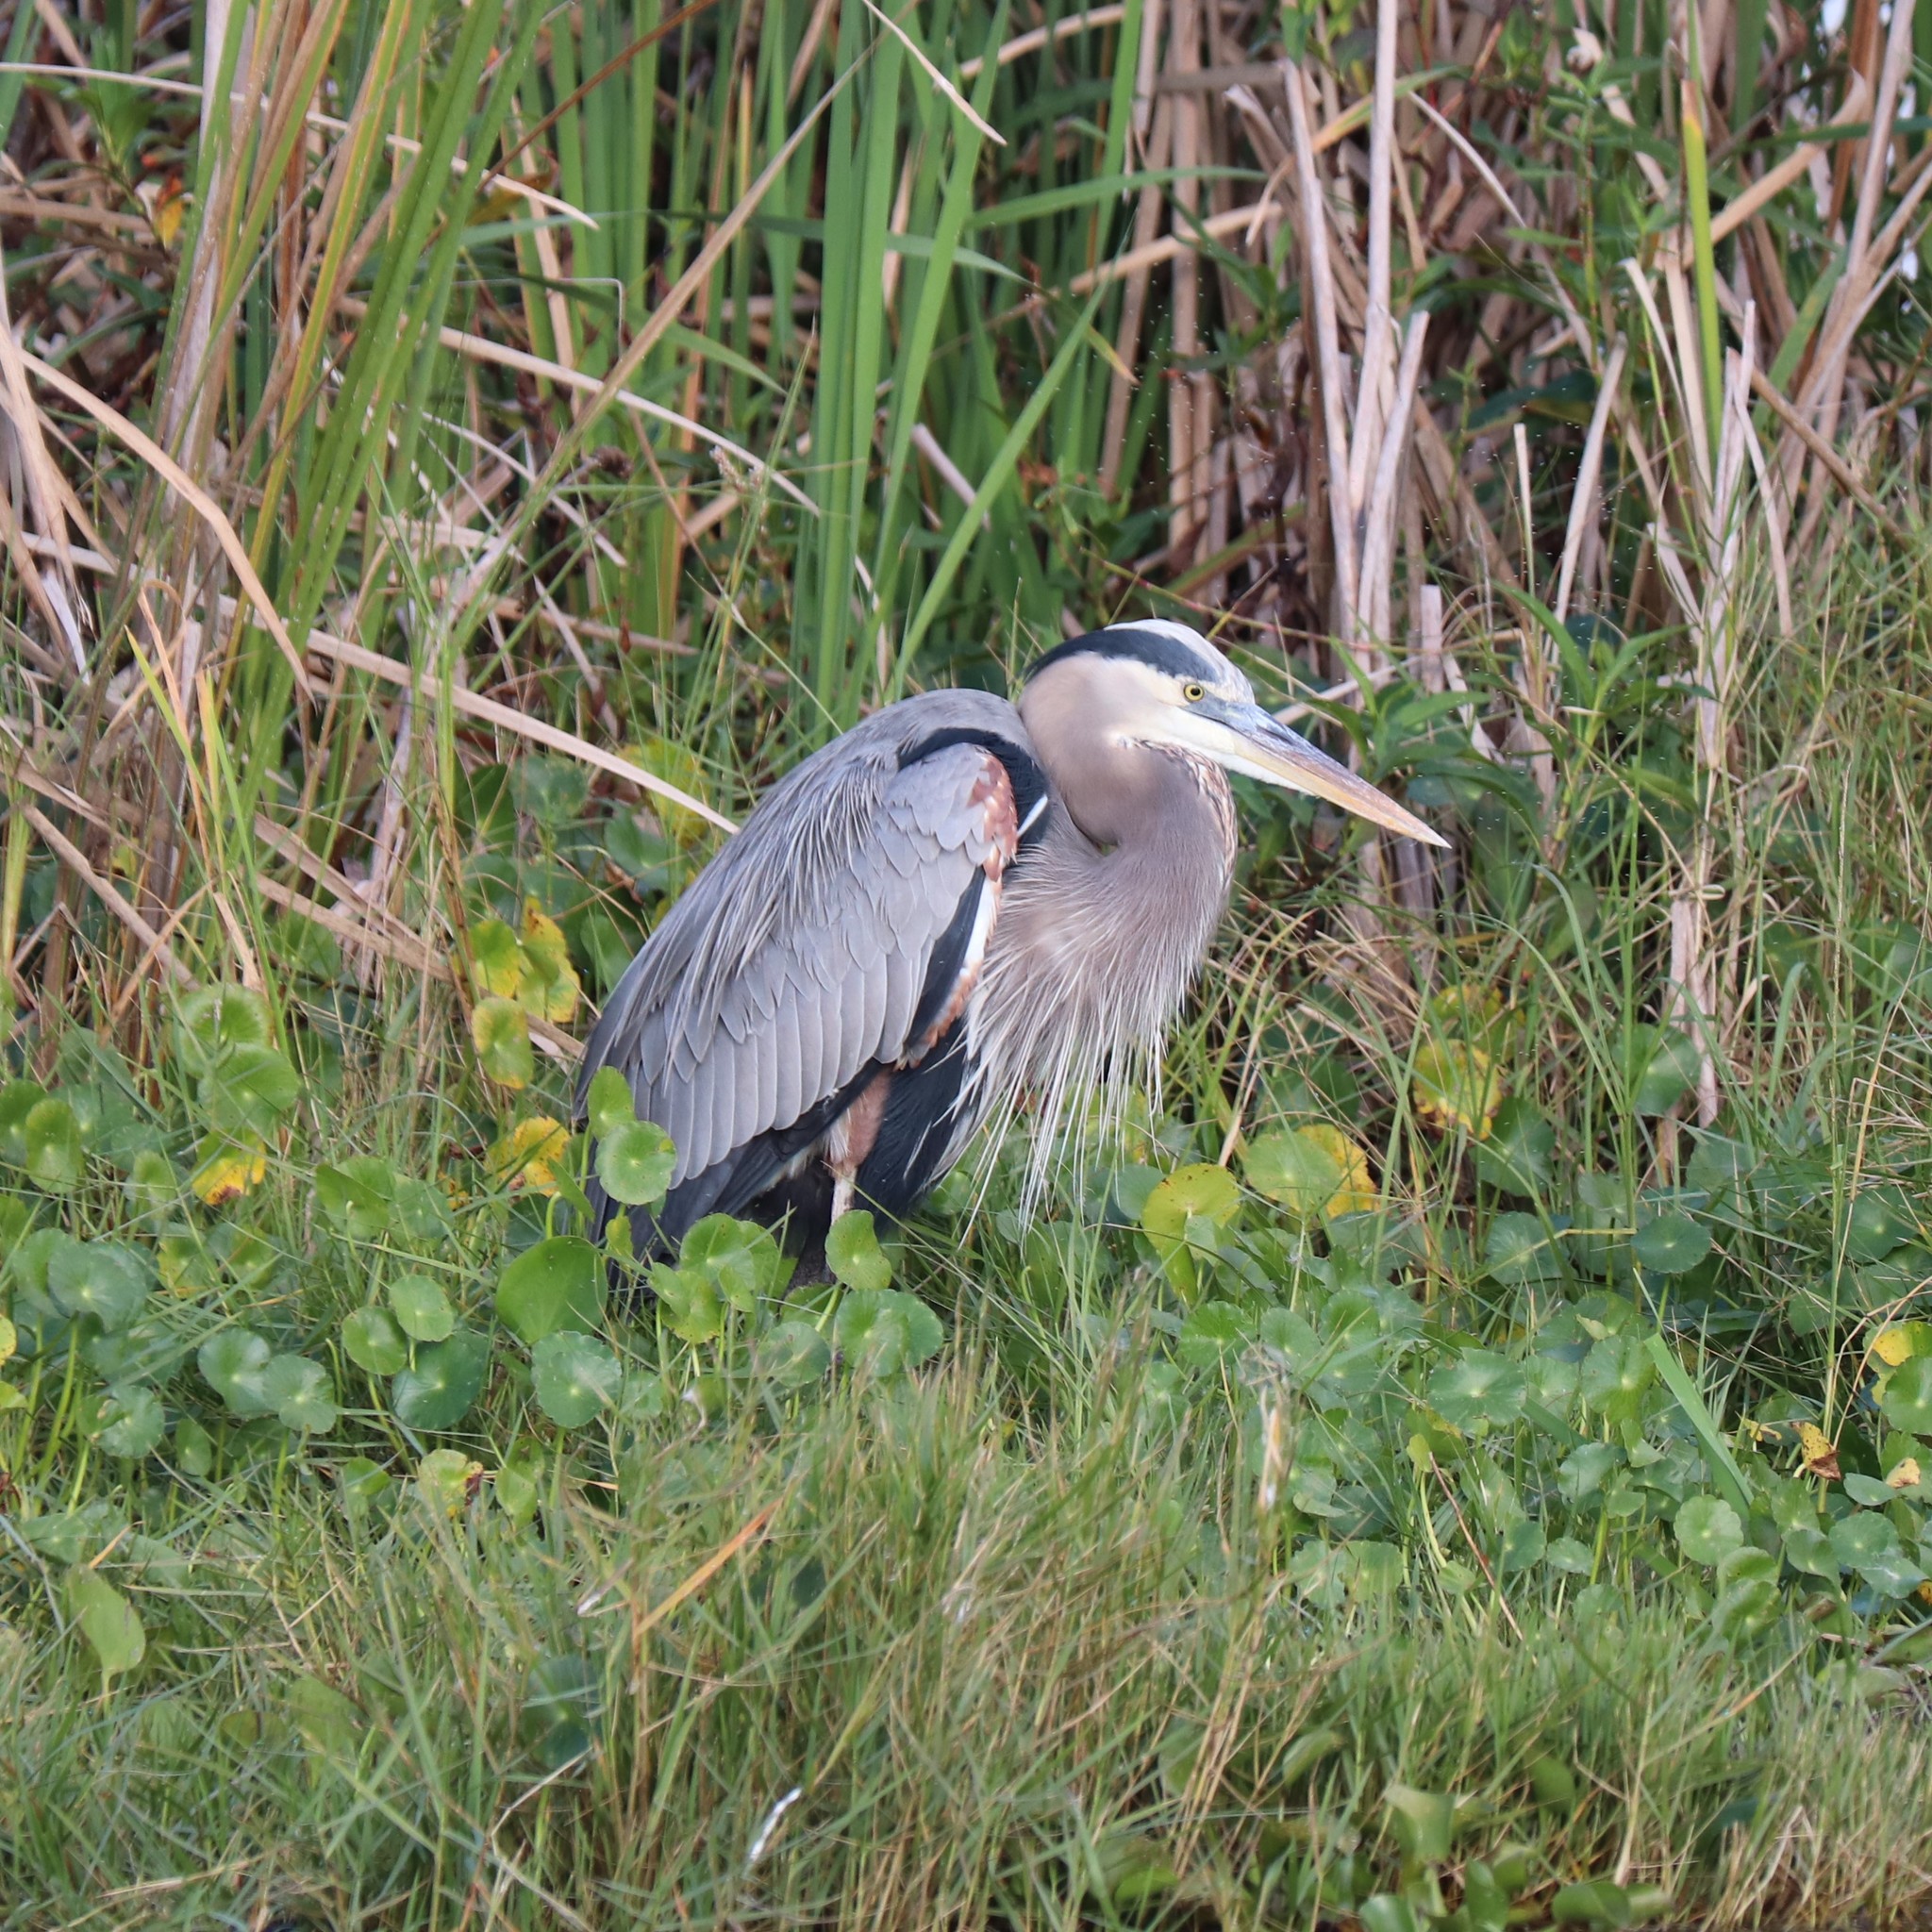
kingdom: Animalia
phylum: Chordata
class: Aves
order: Pelecaniformes
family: Ardeidae
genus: Ardea
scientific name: Ardea herodias
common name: Great blue heron
